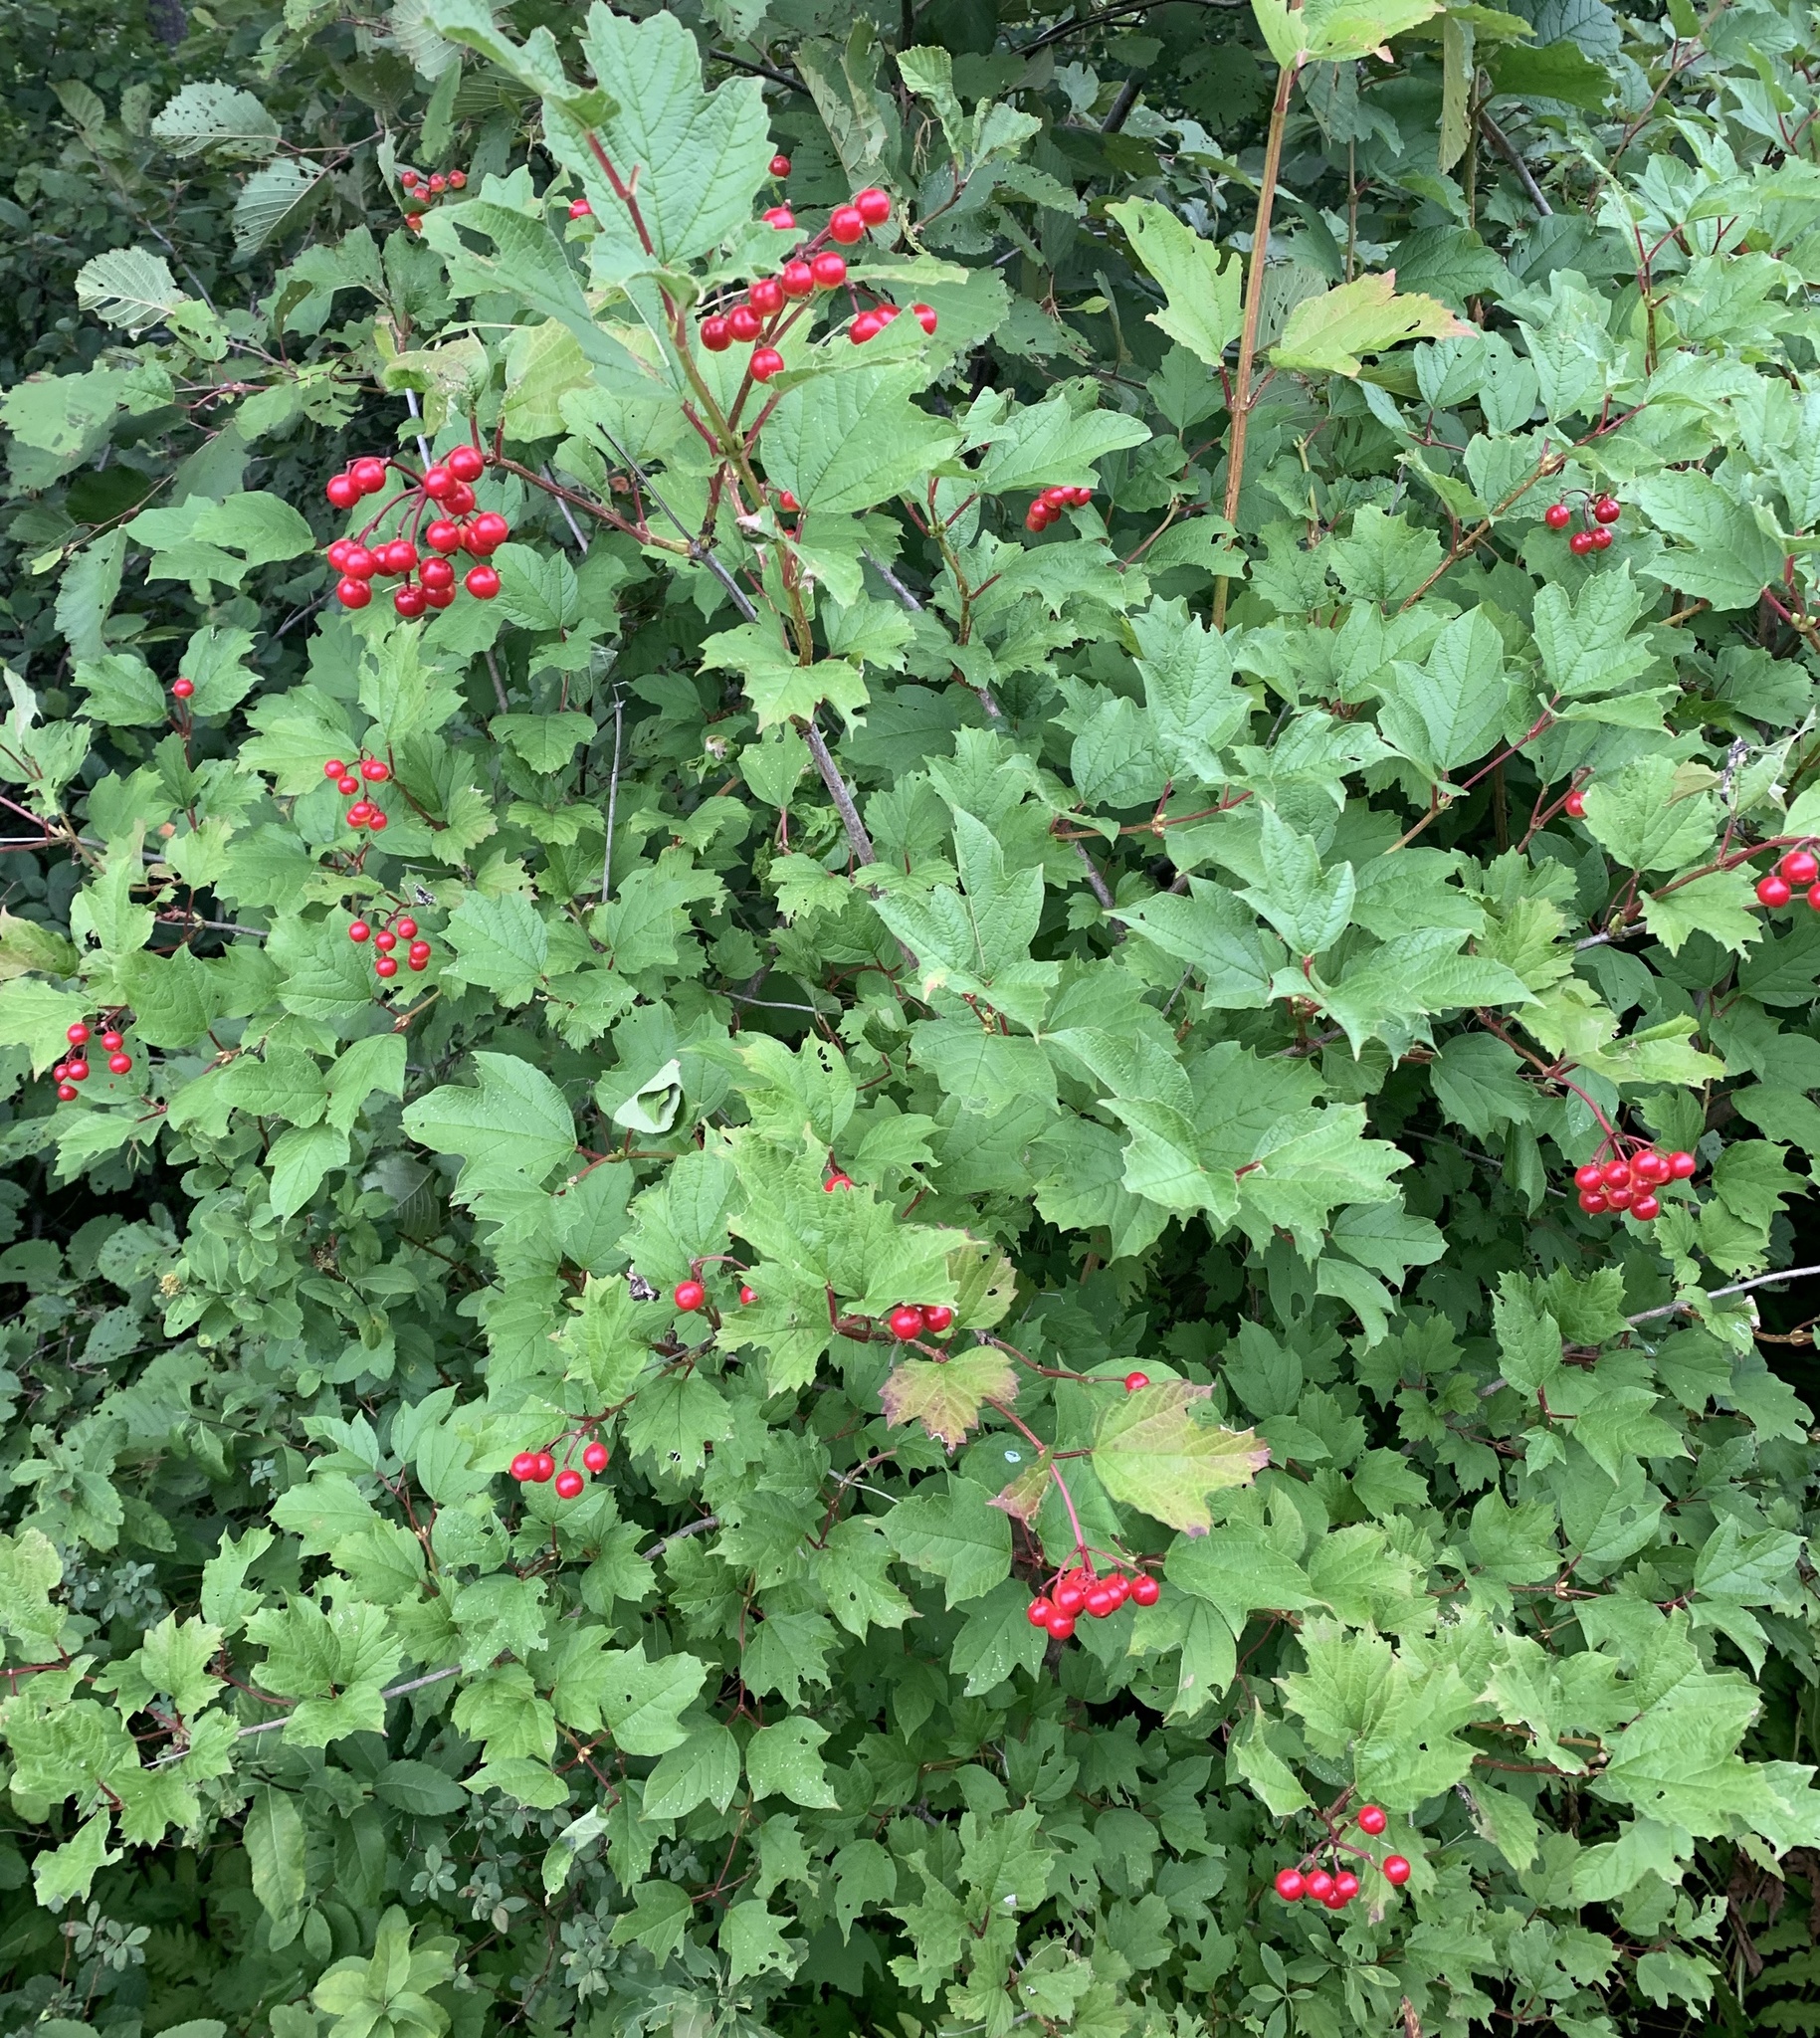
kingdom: Plantae
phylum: Tracheophyta
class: Magnoliopsida
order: Dipsacales
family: Viburnaceae
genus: Viburnum
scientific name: Viburnum opulus
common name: Guelder-rose
